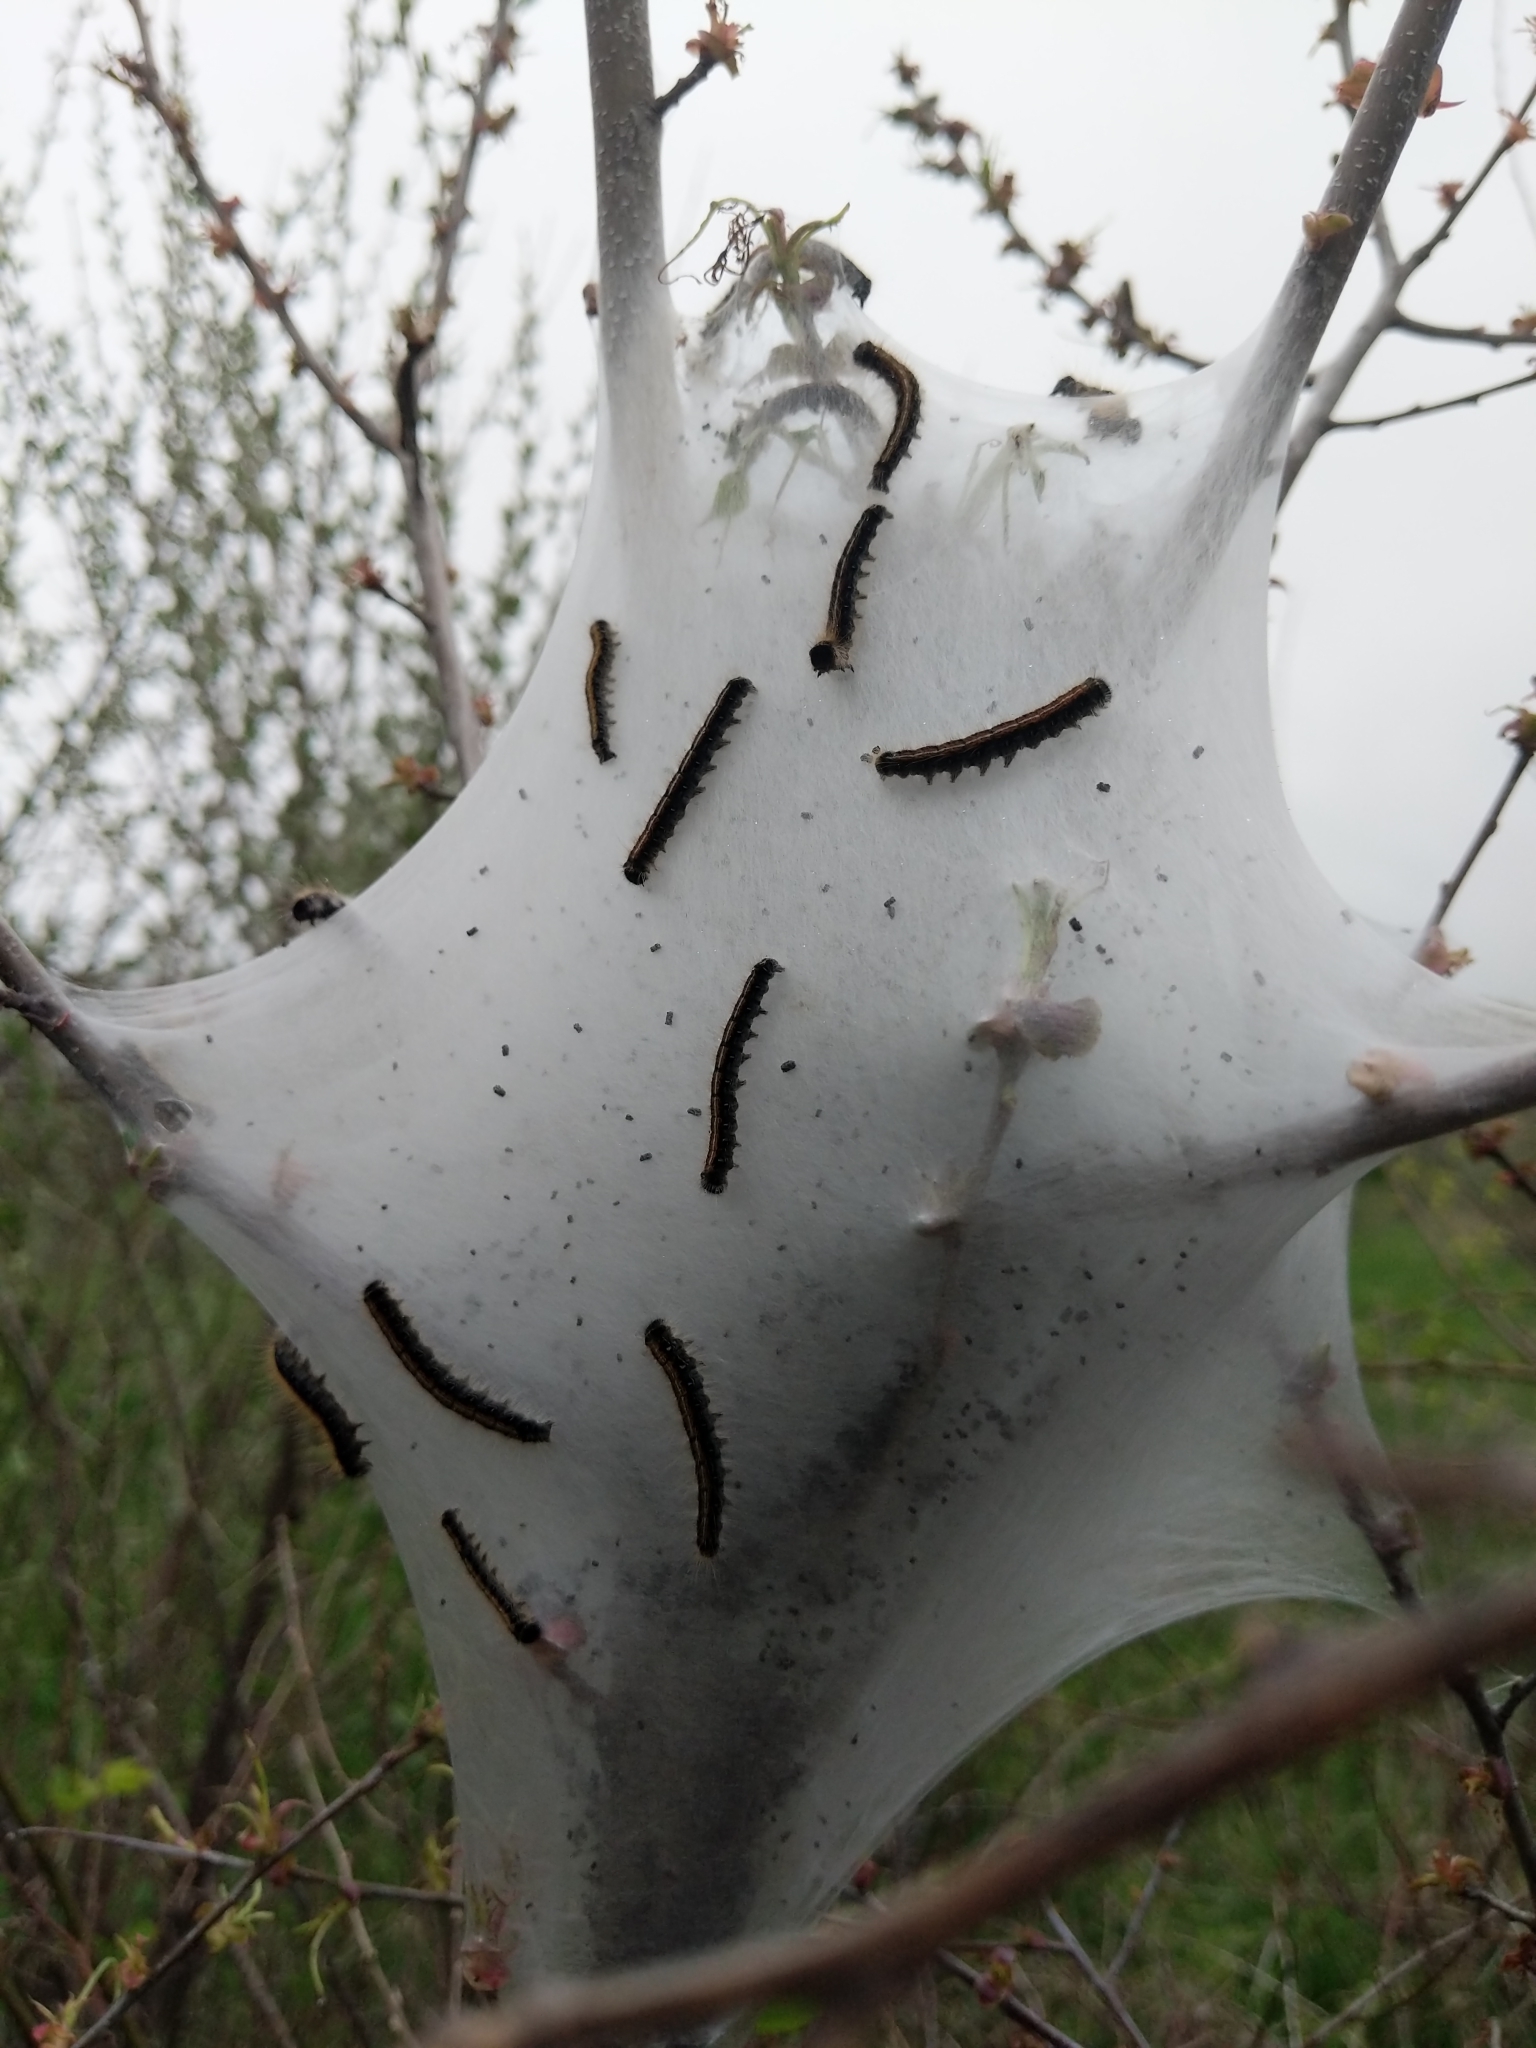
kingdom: Animalia
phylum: Arthropoda
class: Insecta
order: Lepidoptera
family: Lasiocampidae
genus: Malacosoma
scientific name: Malacosoma americana
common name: Eastern tent caterpillar moth
